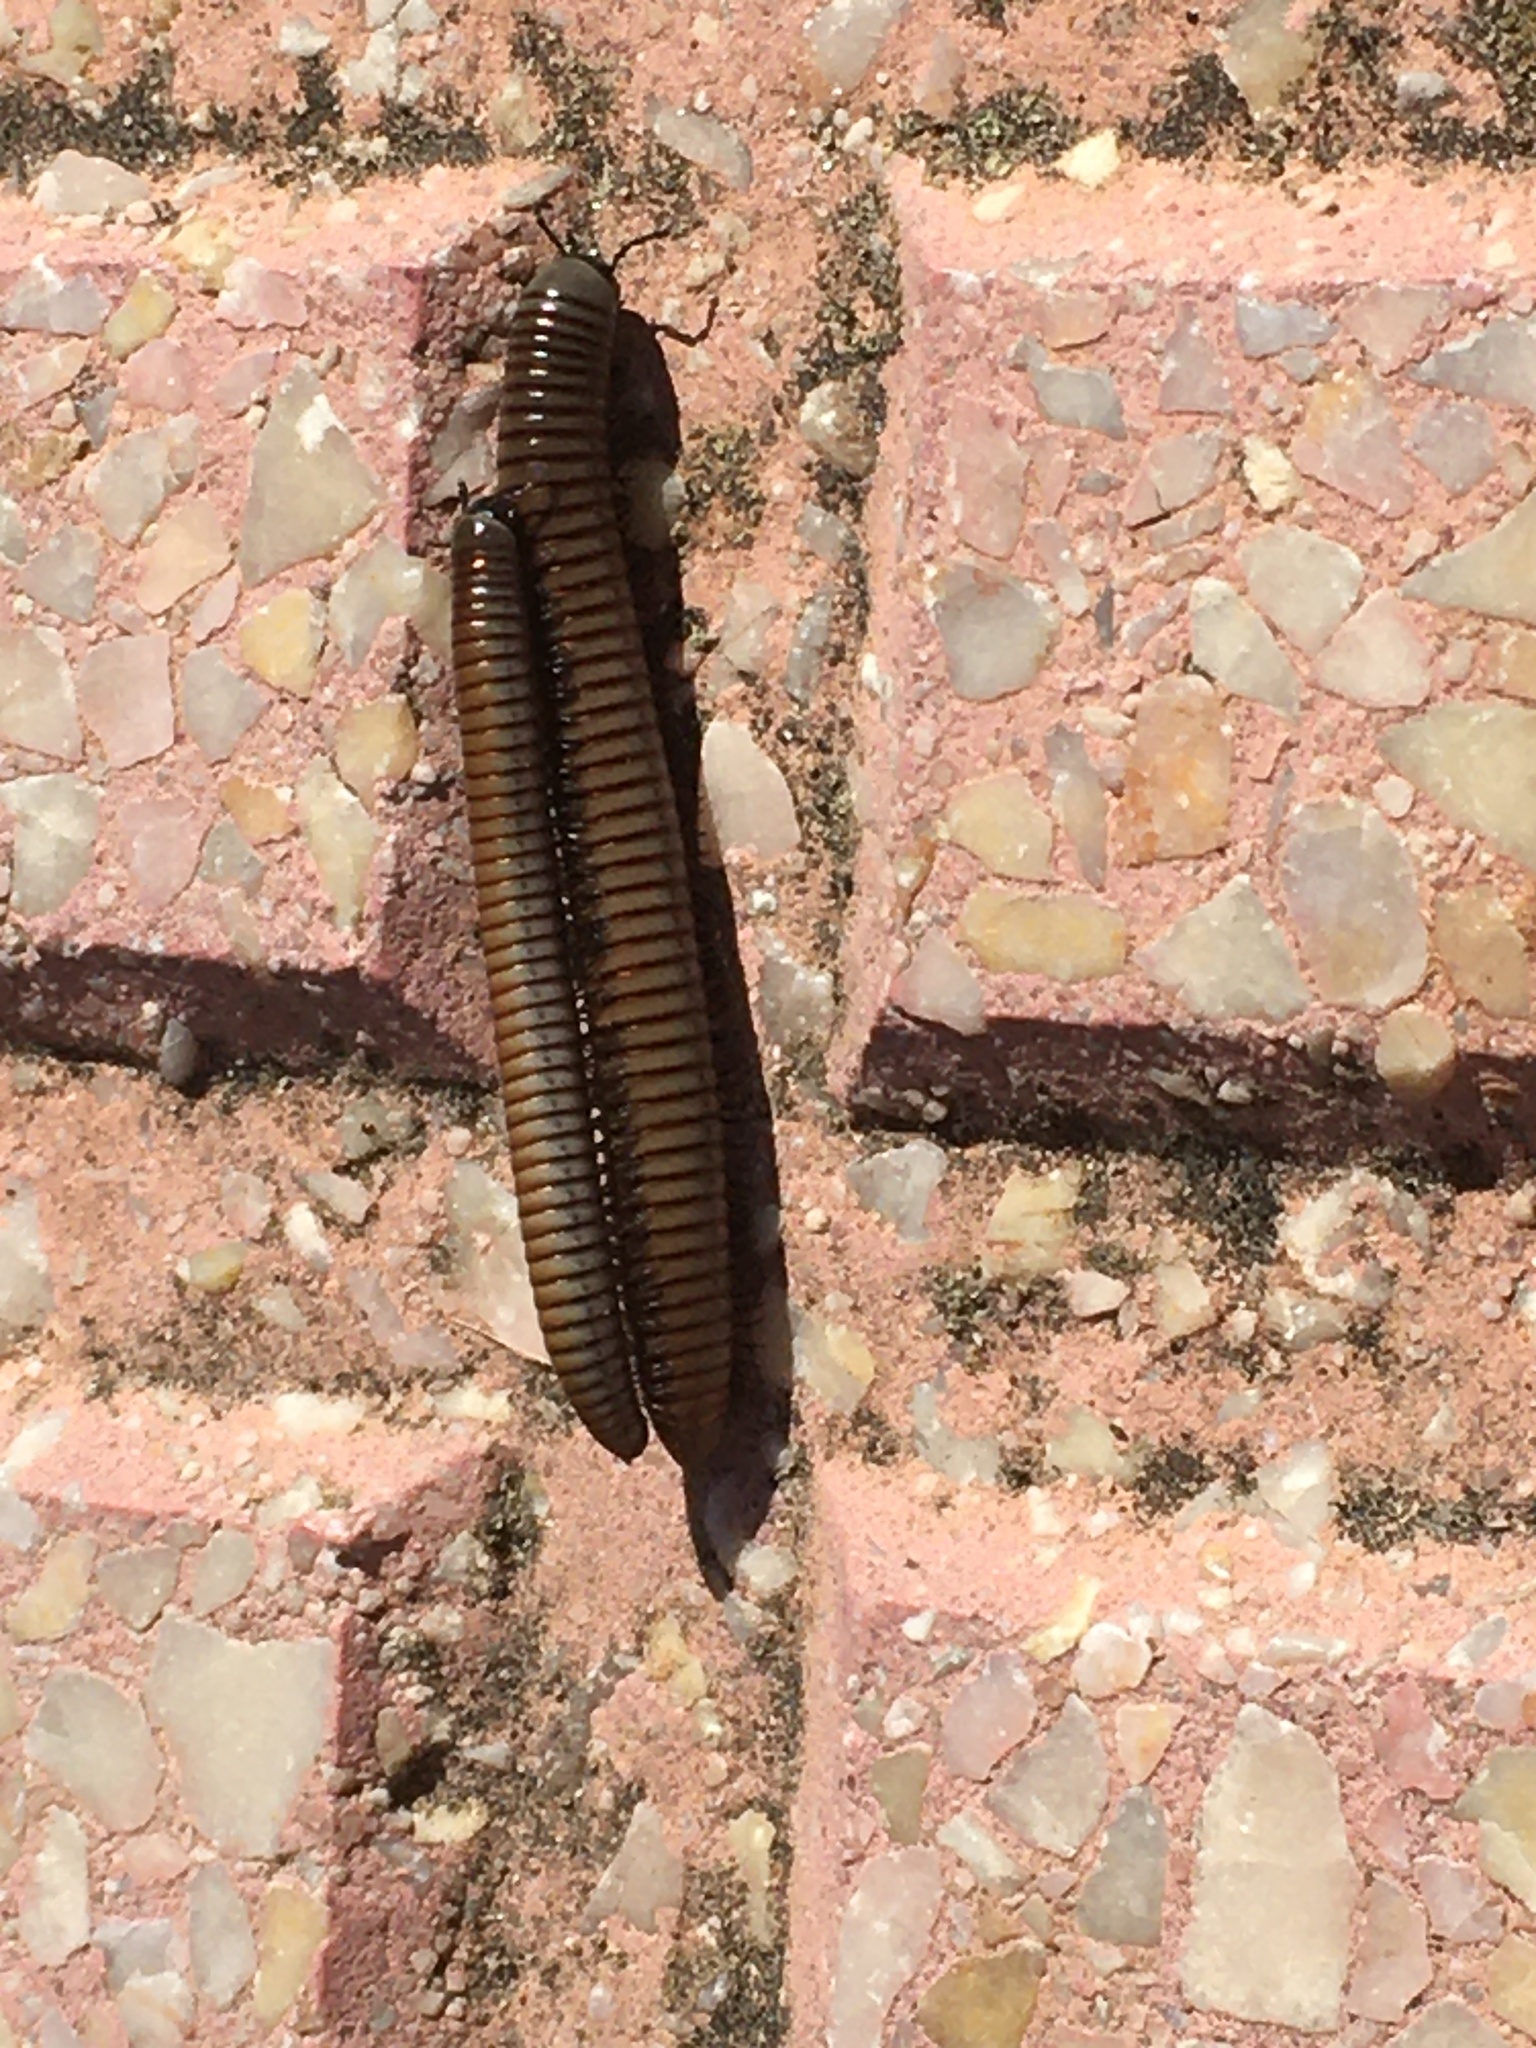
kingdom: Animalia
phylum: Arthropoda
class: Diplopoda
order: Julida
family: Julidae
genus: Ommatoiulus
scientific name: Ommatoiulus rutilans
